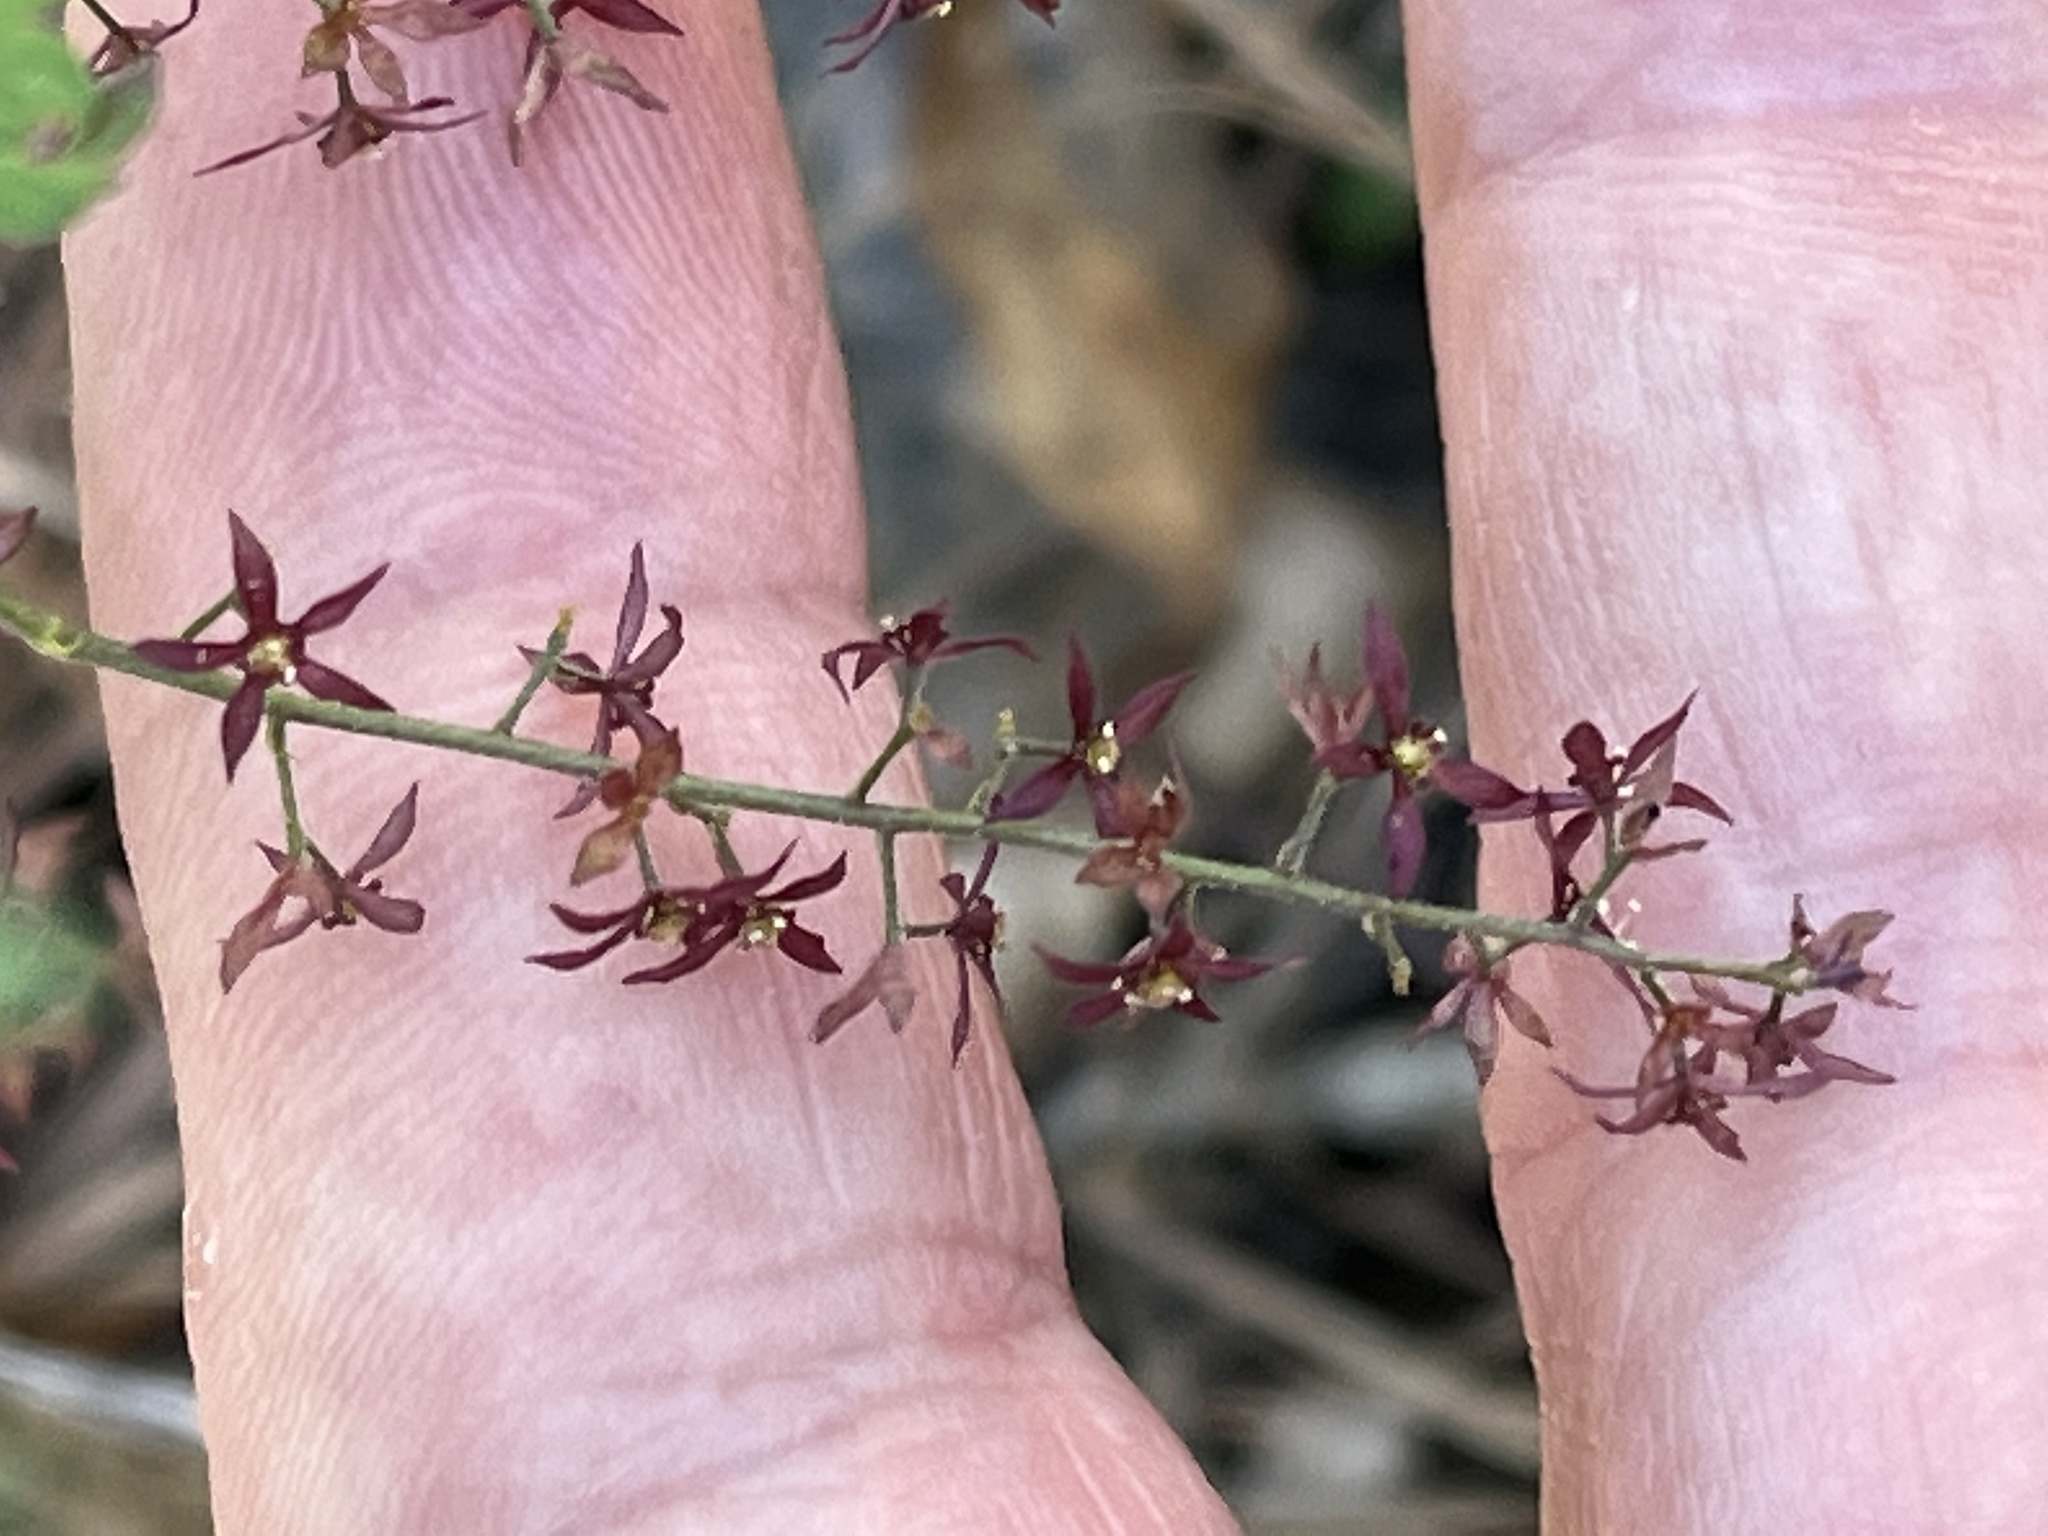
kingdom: Plantae
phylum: Tracheophyta
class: Magnoliopsida
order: Ranunculales
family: Ranunculaceae
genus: Xanthorhiza
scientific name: Xanthorhiza simplicissima
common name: Yellowroot
